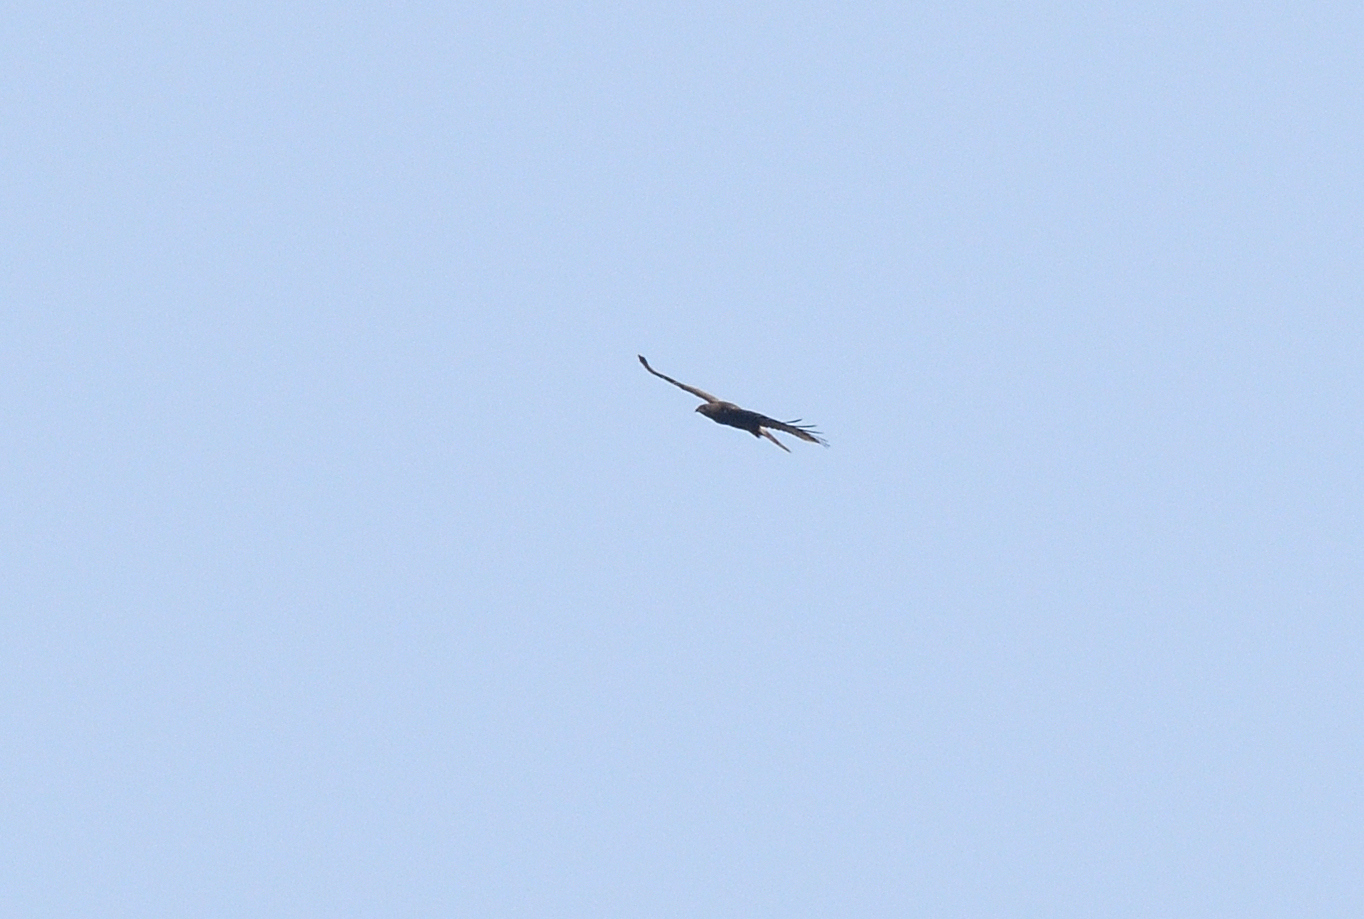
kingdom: Animalia
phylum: Chordata
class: Aves
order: Accipitriformes
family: Accipitridae
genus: Pernis
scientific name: Pernis ptilorhynchus
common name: Crested honey buzzard
